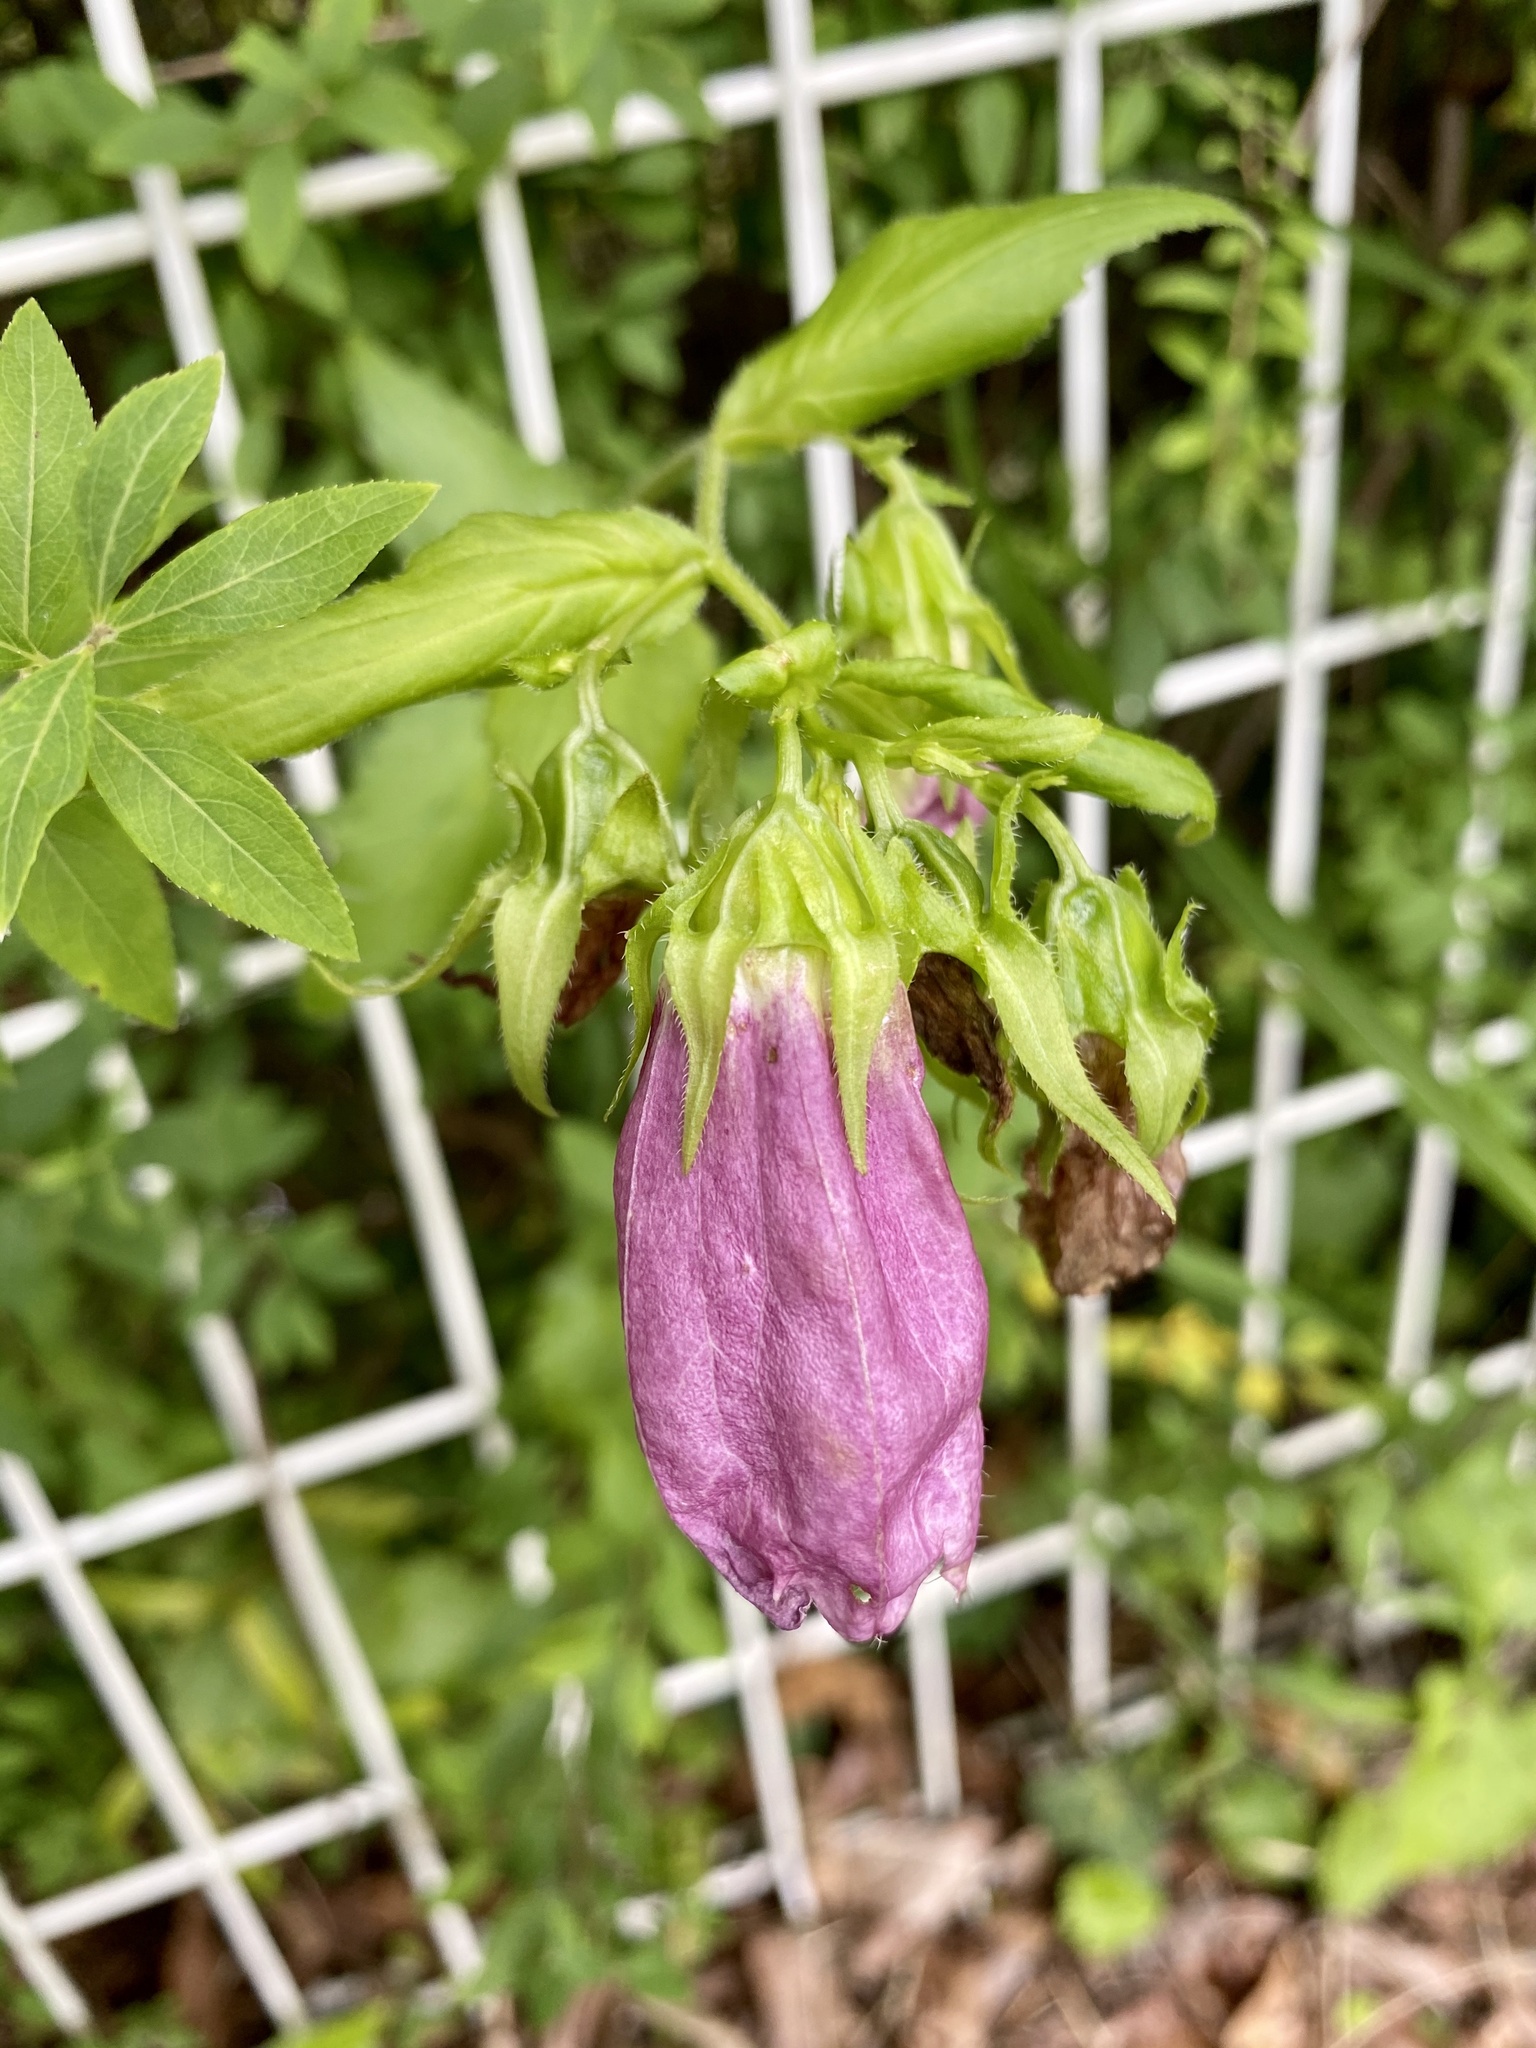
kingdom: Plantae
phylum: Tracheophyta
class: Magnoliopsida
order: Asterales
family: Campanulaceae
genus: Campanula
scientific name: Campanula punctata
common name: Spotted bellflower
